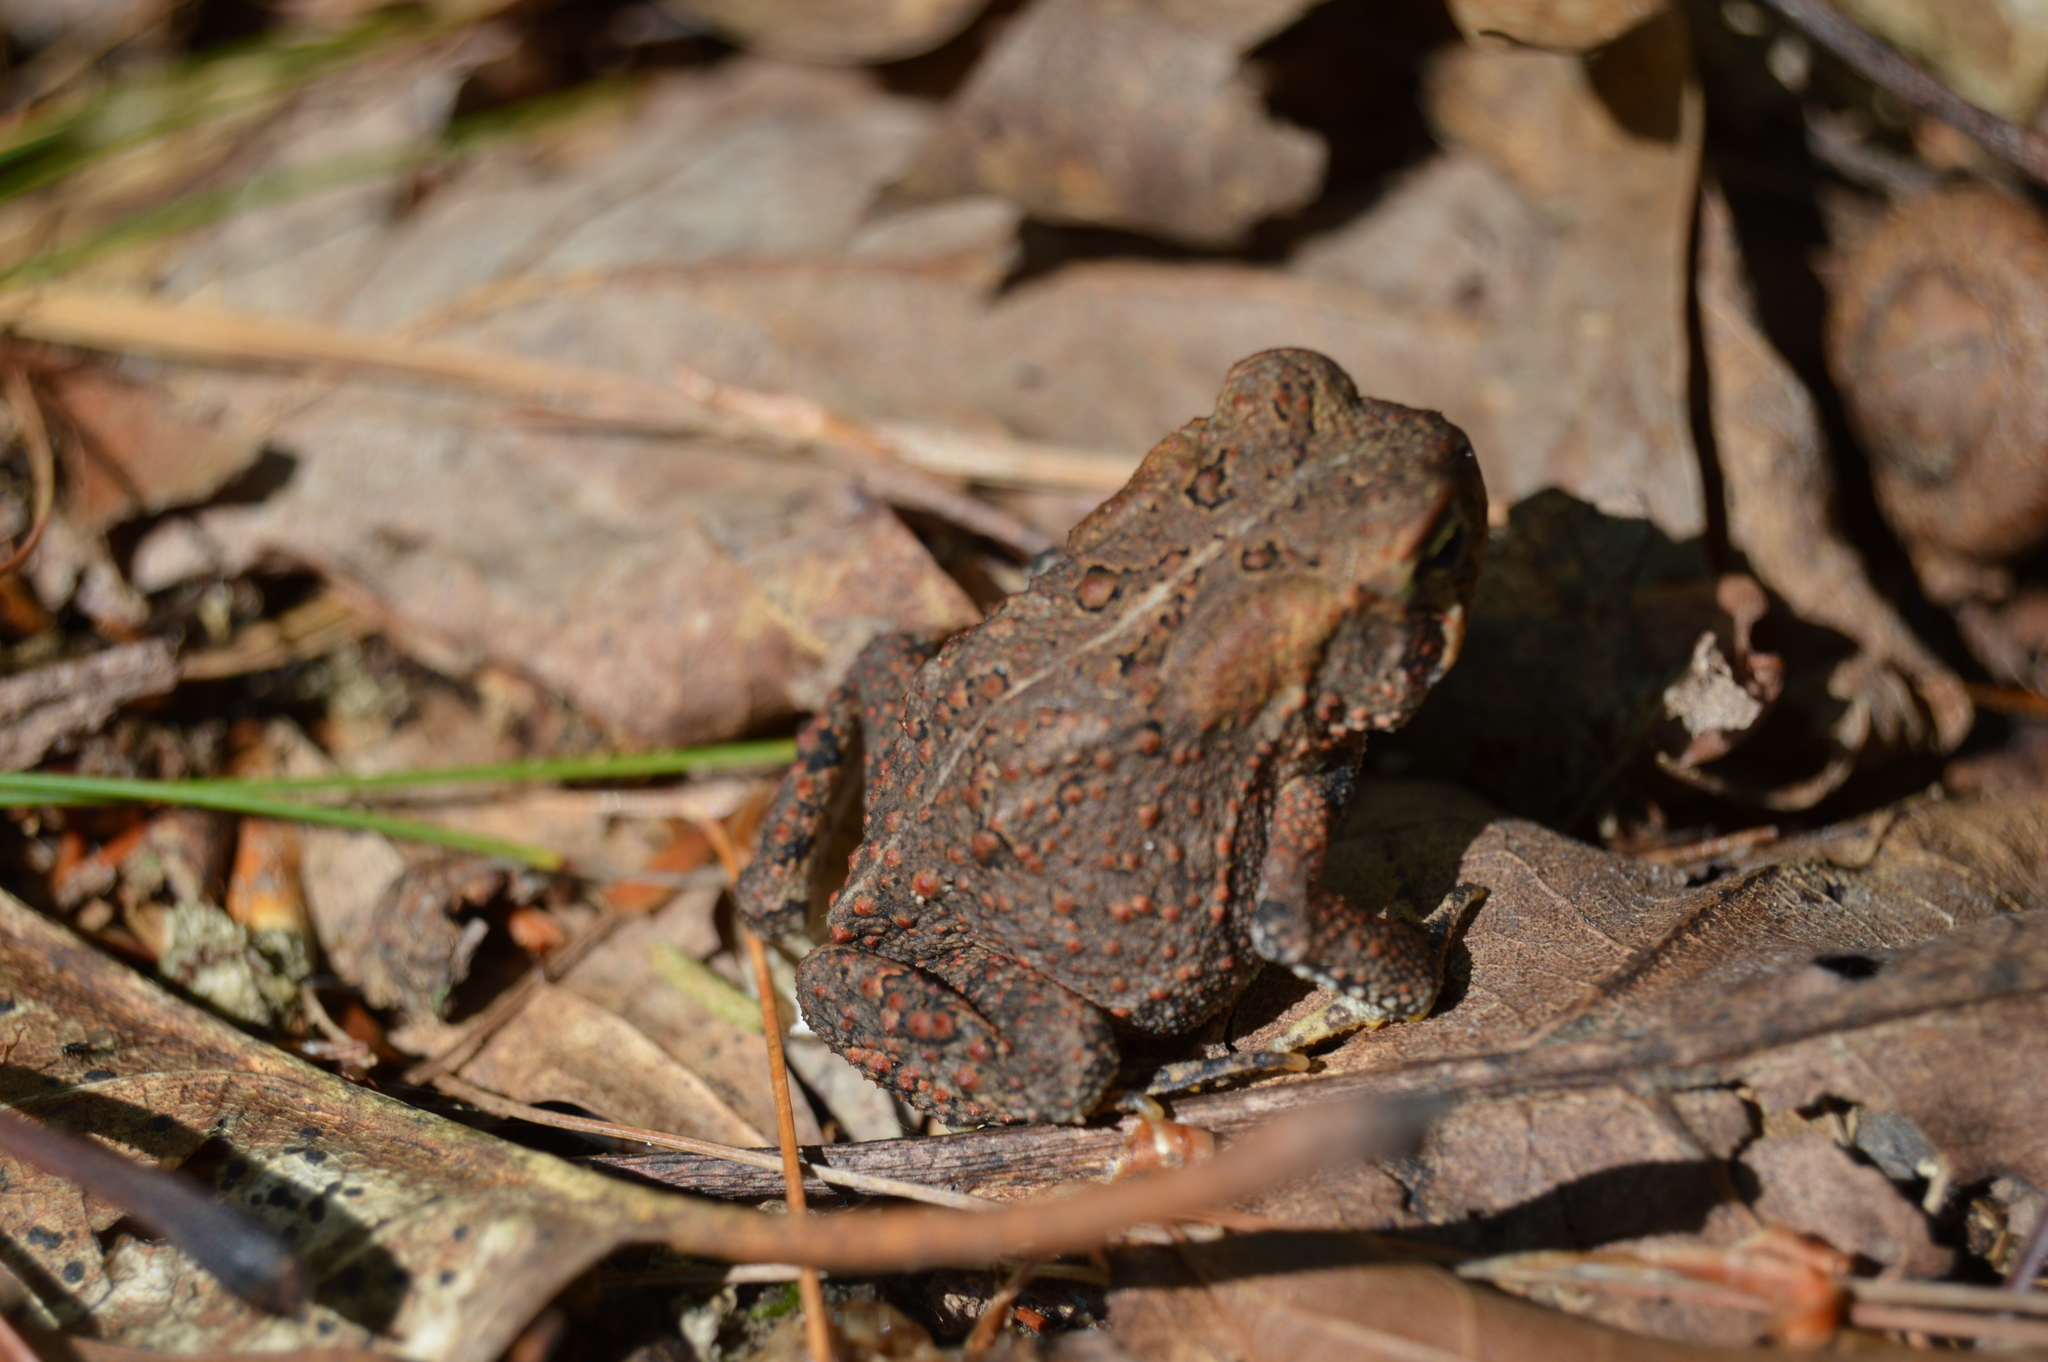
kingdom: Animalia
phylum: Chordata
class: Amphibia
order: Anura
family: Bufonidae
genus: Anaxyrus
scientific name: Anaxyrus americanus
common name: American toad
